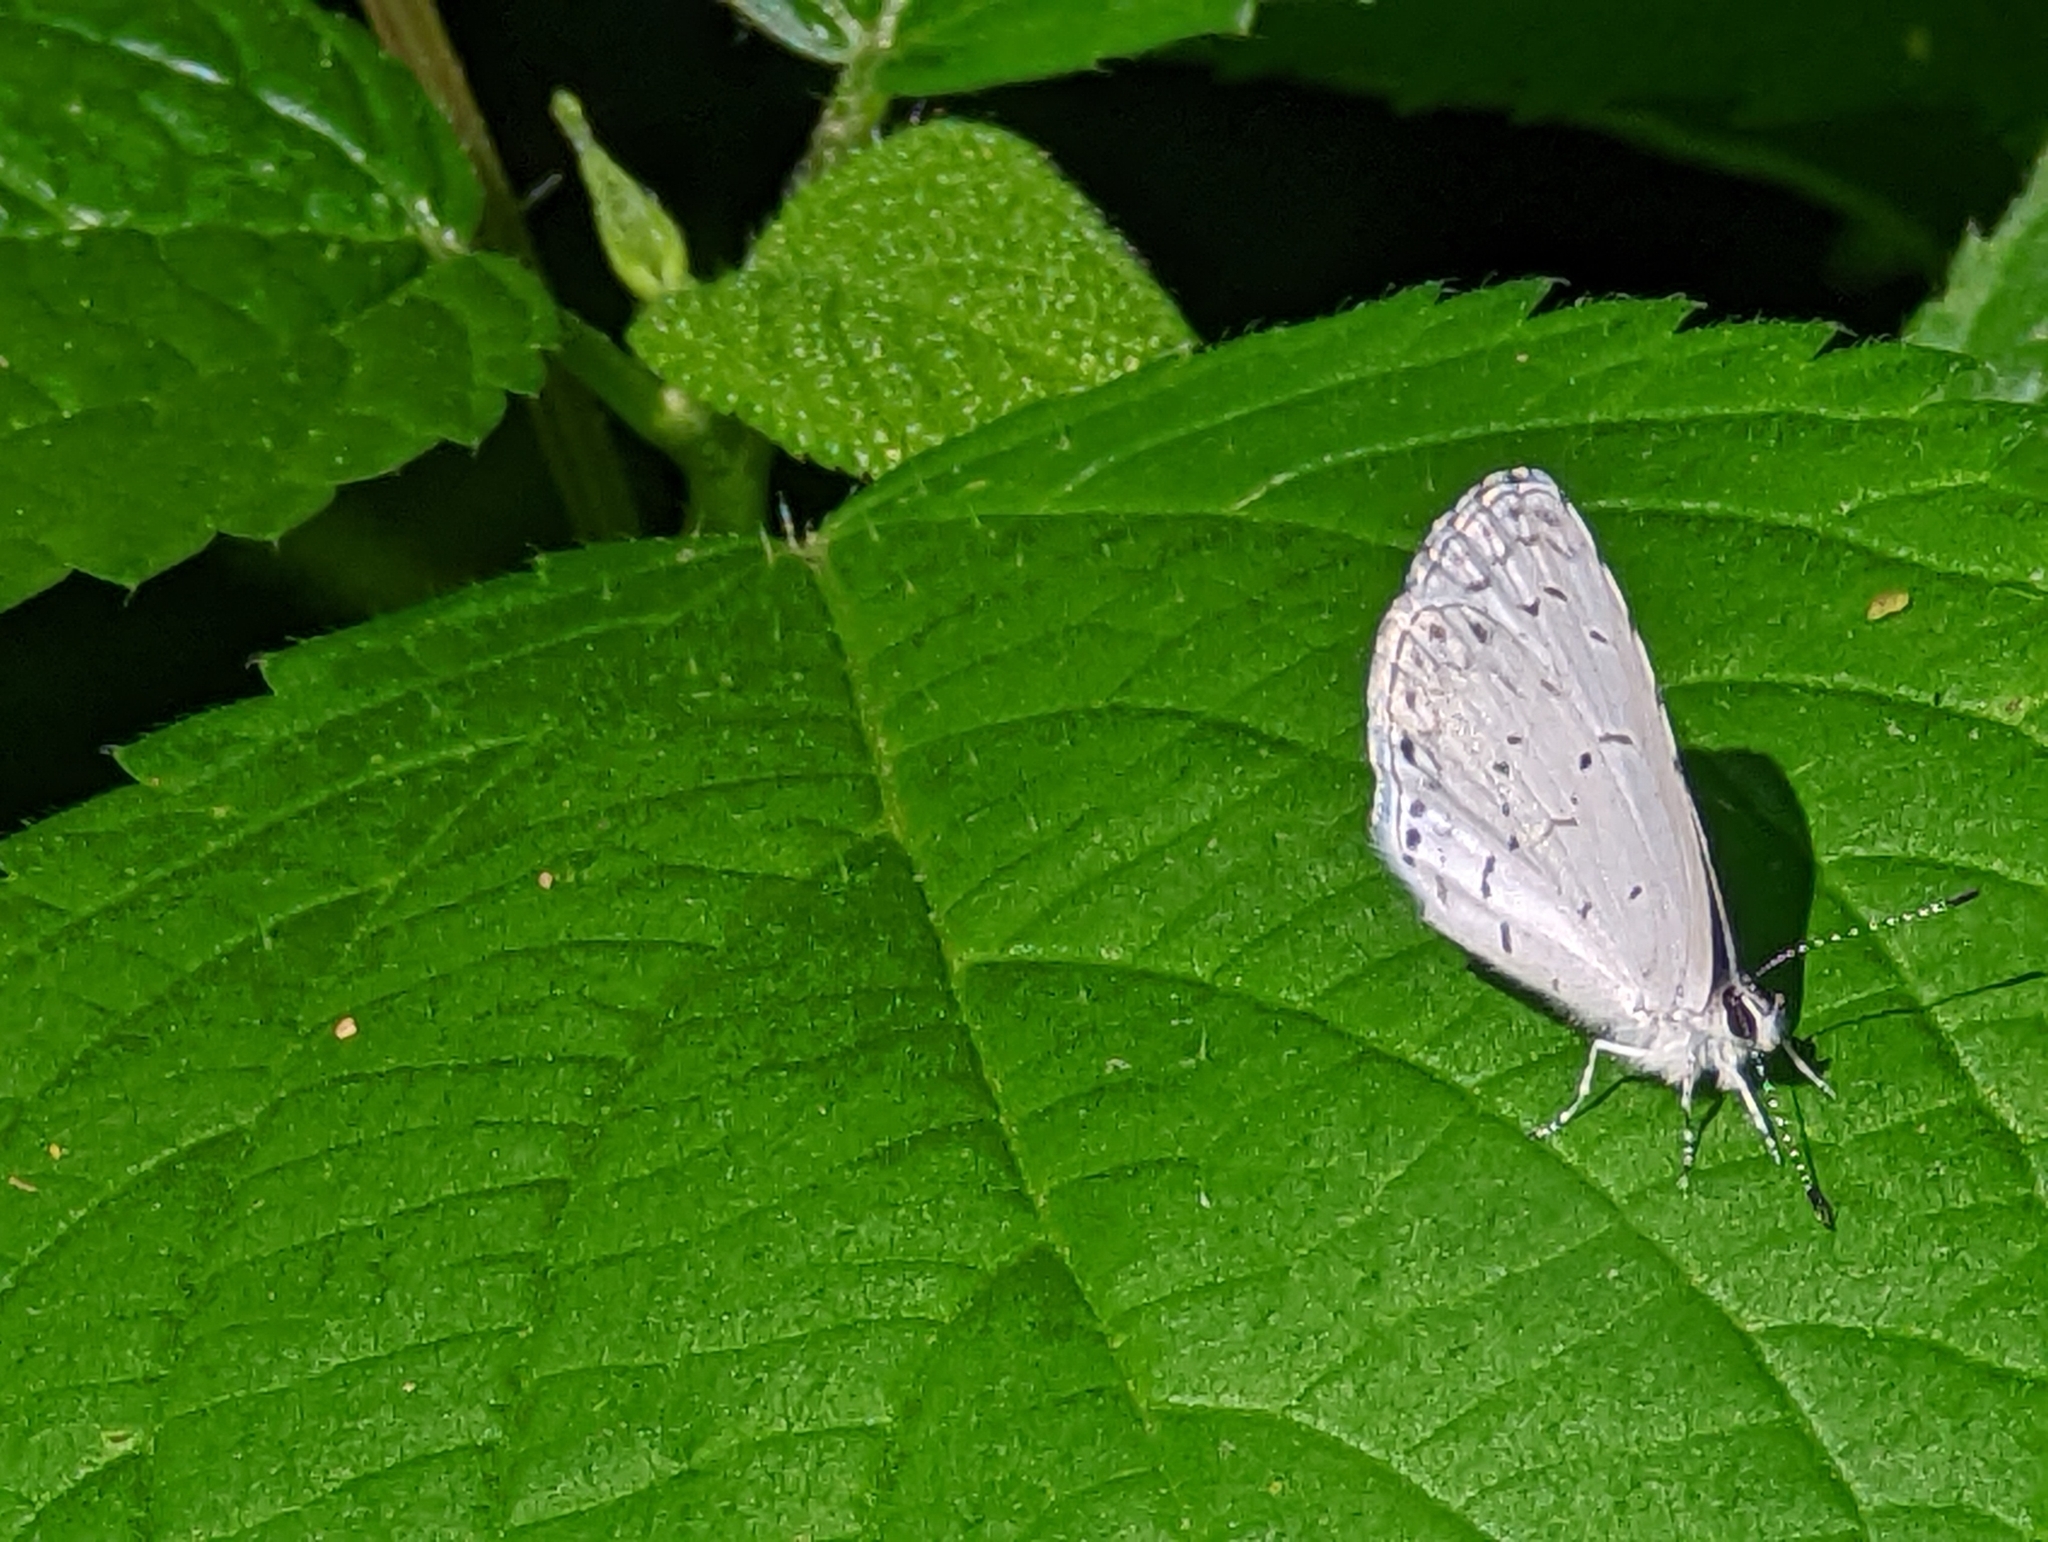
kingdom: Animalia
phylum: Arthropoda
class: Insecta
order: Lepidoptera
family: Lycaenidae
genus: Cyaniris
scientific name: Cyaniris neglecta
